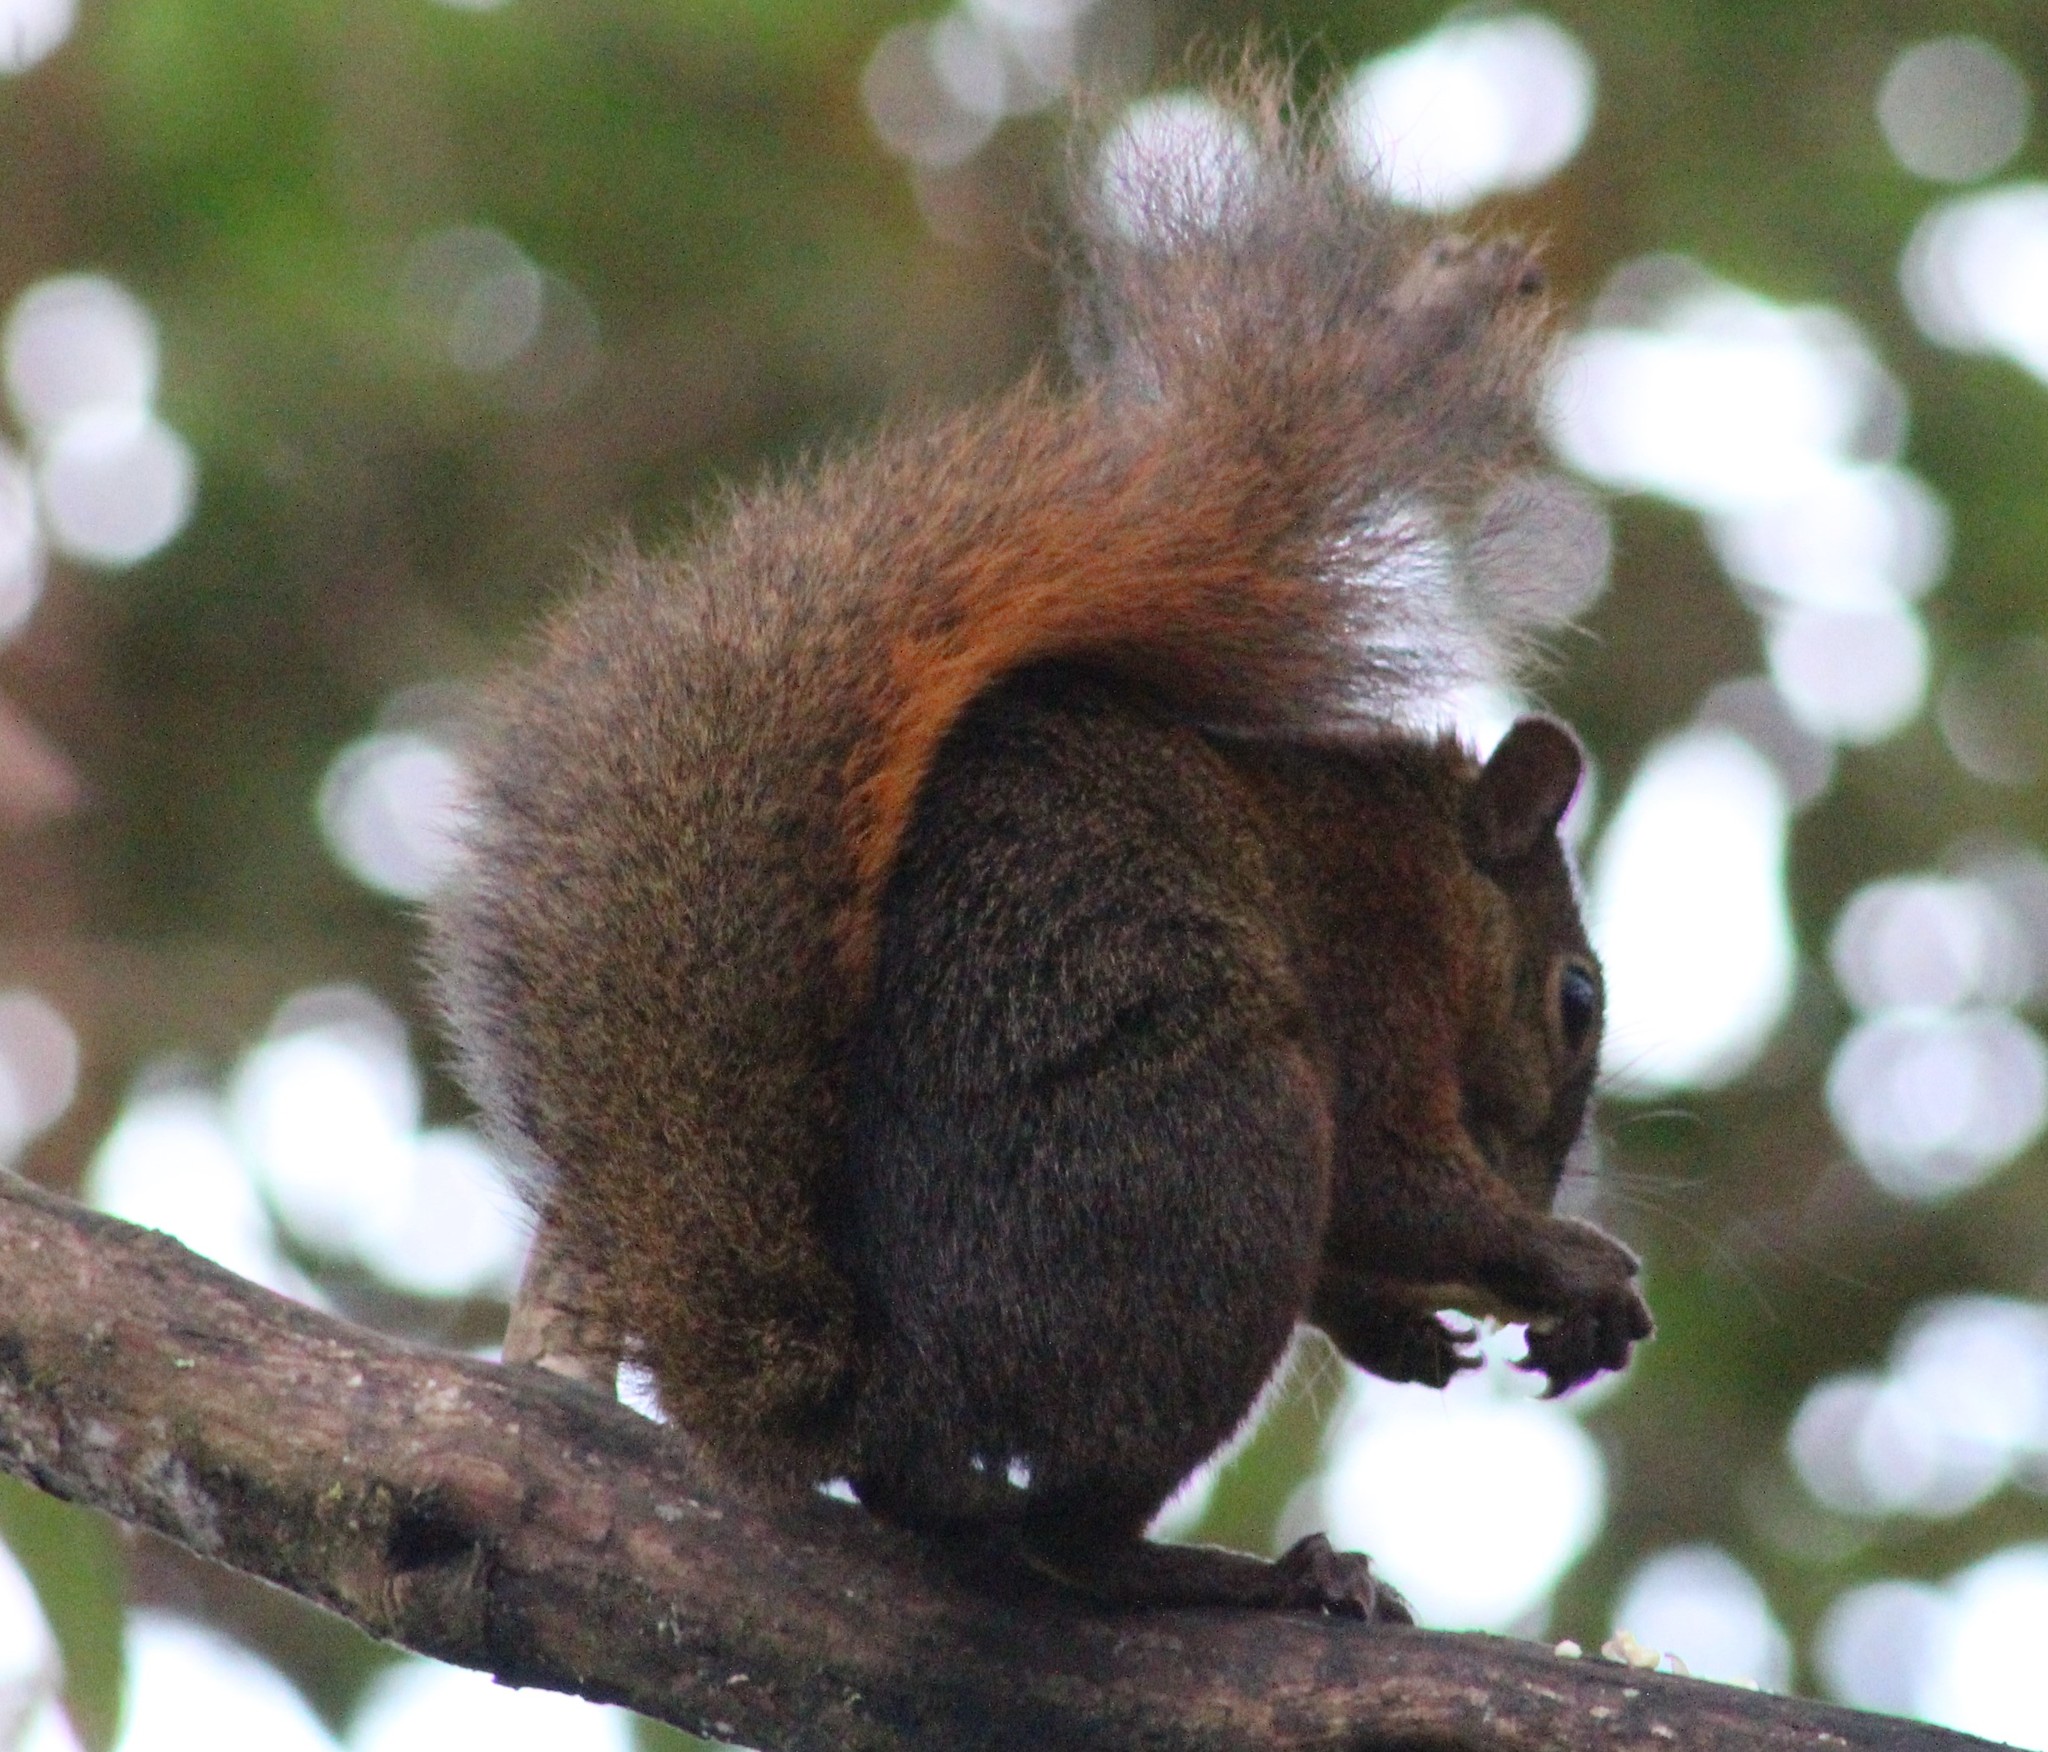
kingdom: Animalia
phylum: Chordata
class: Mammalia
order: Rodentia
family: Sciuridae
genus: Sciurus
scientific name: Sciurus granatensis
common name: Red-tailed squirrel
